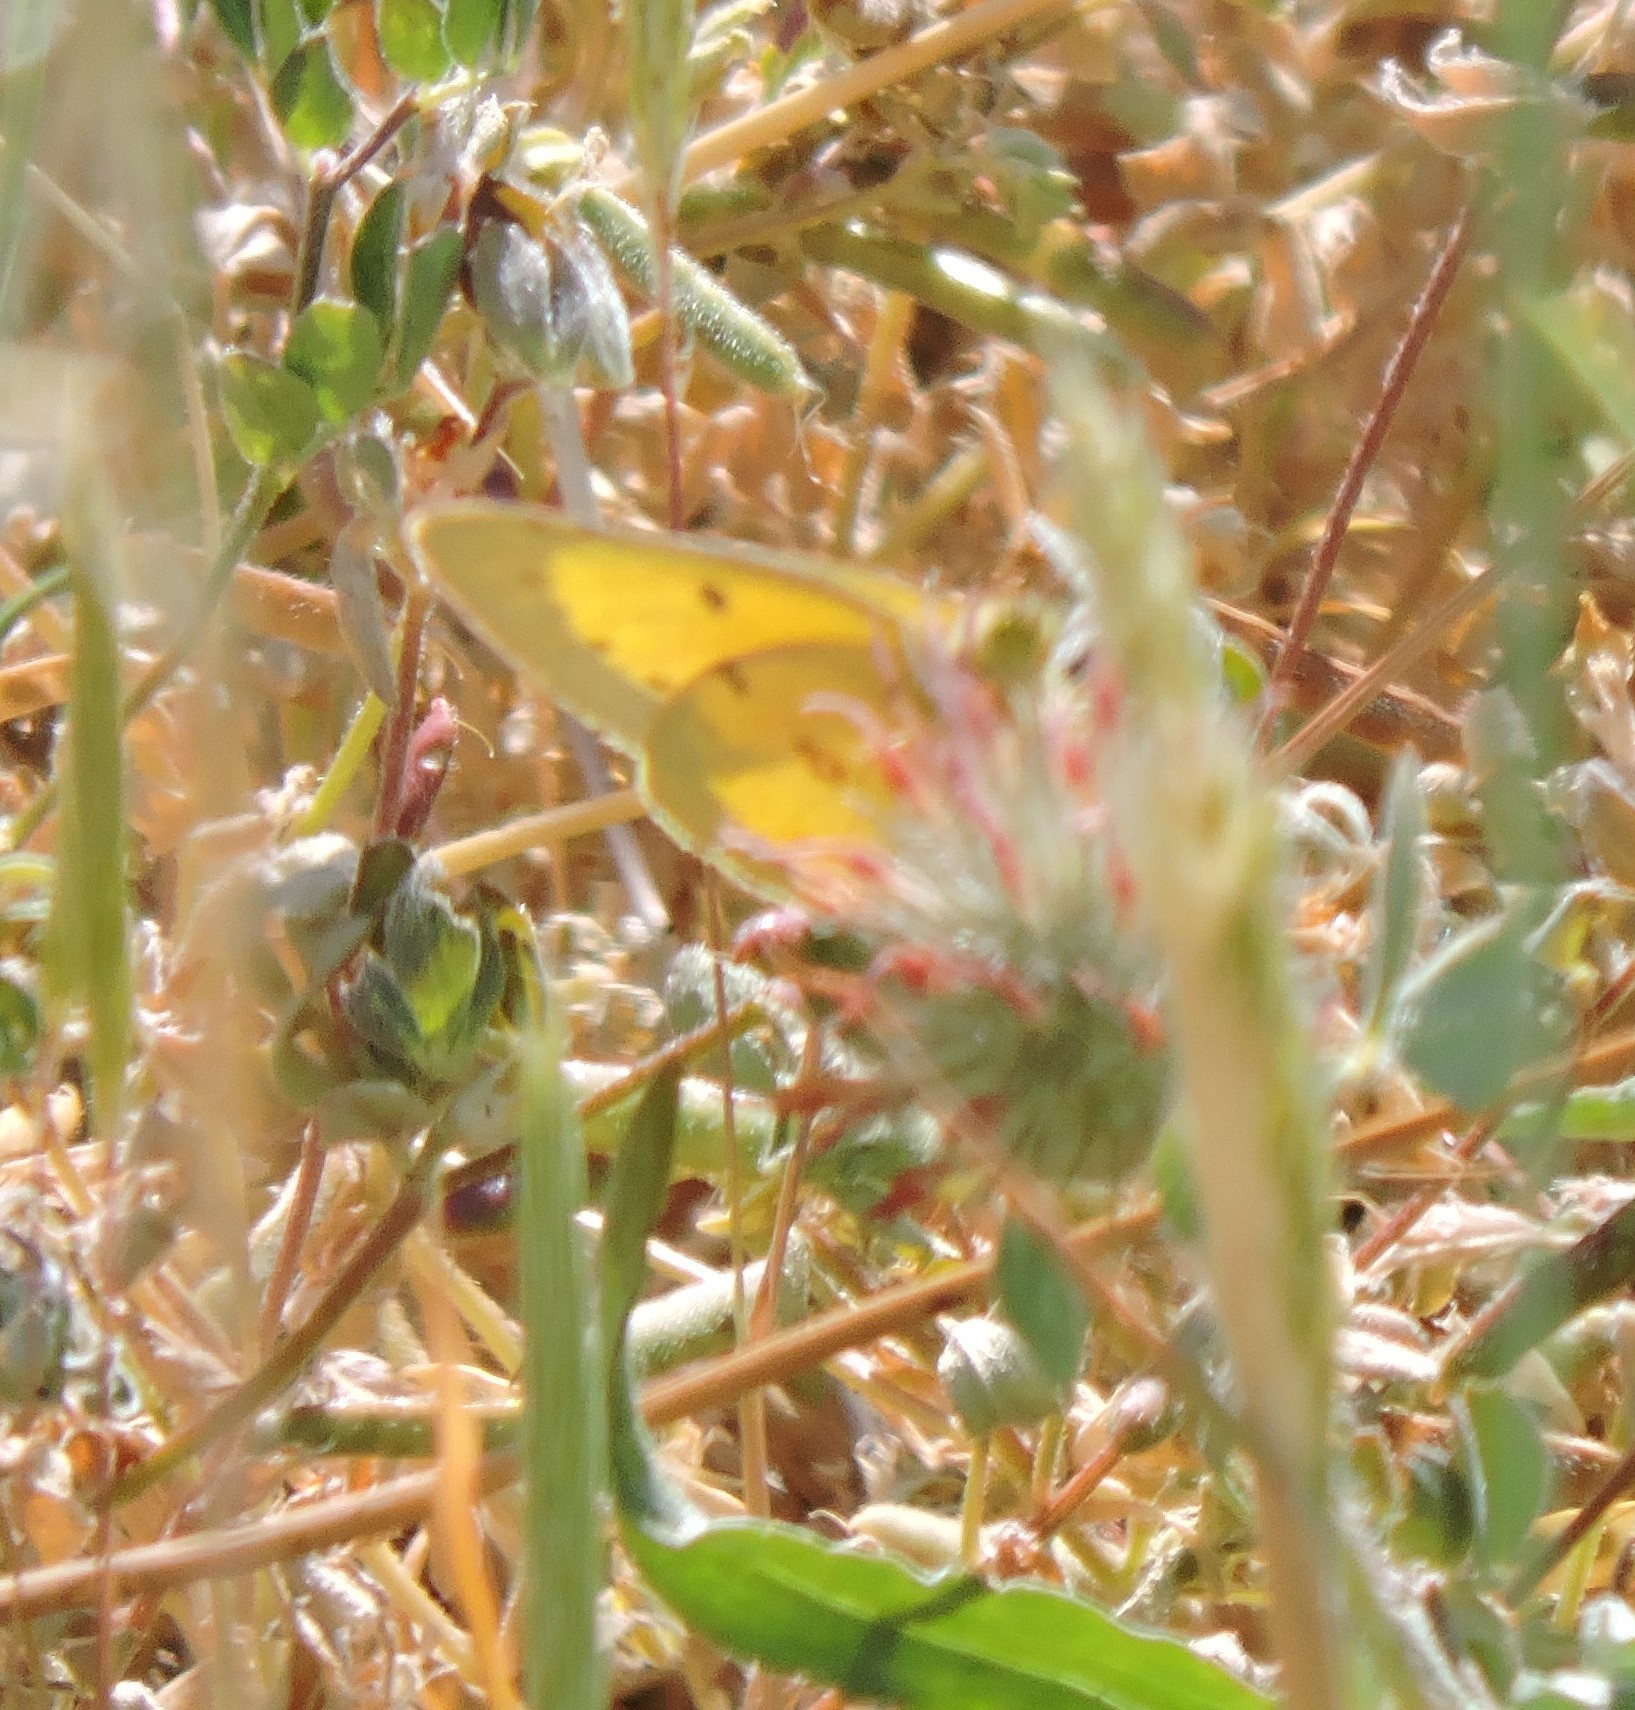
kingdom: Animalia
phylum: Arthropoda
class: Insecta
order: Lepidoptera
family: Pieridae
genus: Colias
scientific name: Colias eurytheme
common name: Alfalfa butterfly
